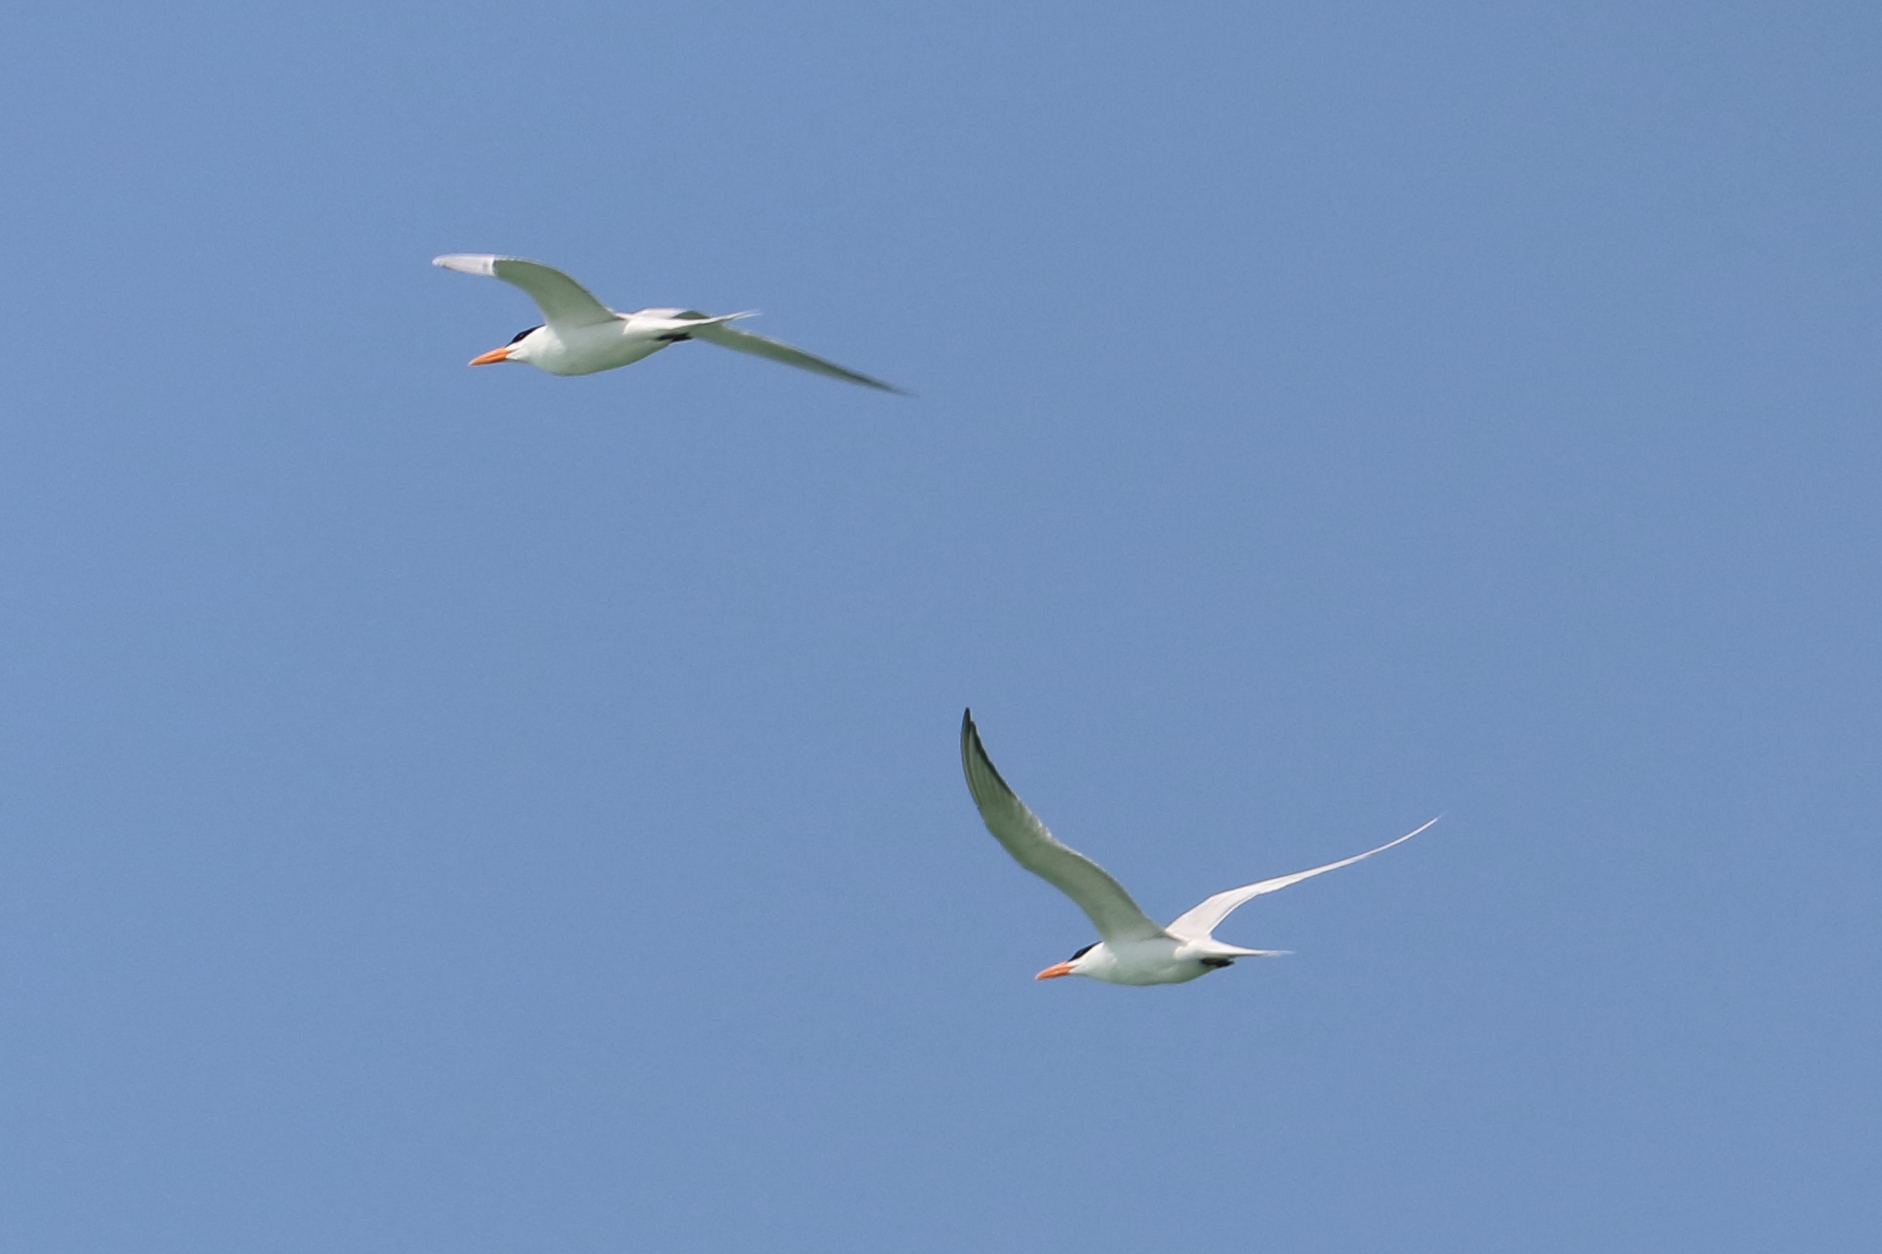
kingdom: Animalia
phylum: Chordata
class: Aves
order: Charadriiformes
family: Laridae
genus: Thalasseus
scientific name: Thalasseus maximus
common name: Royal tern
